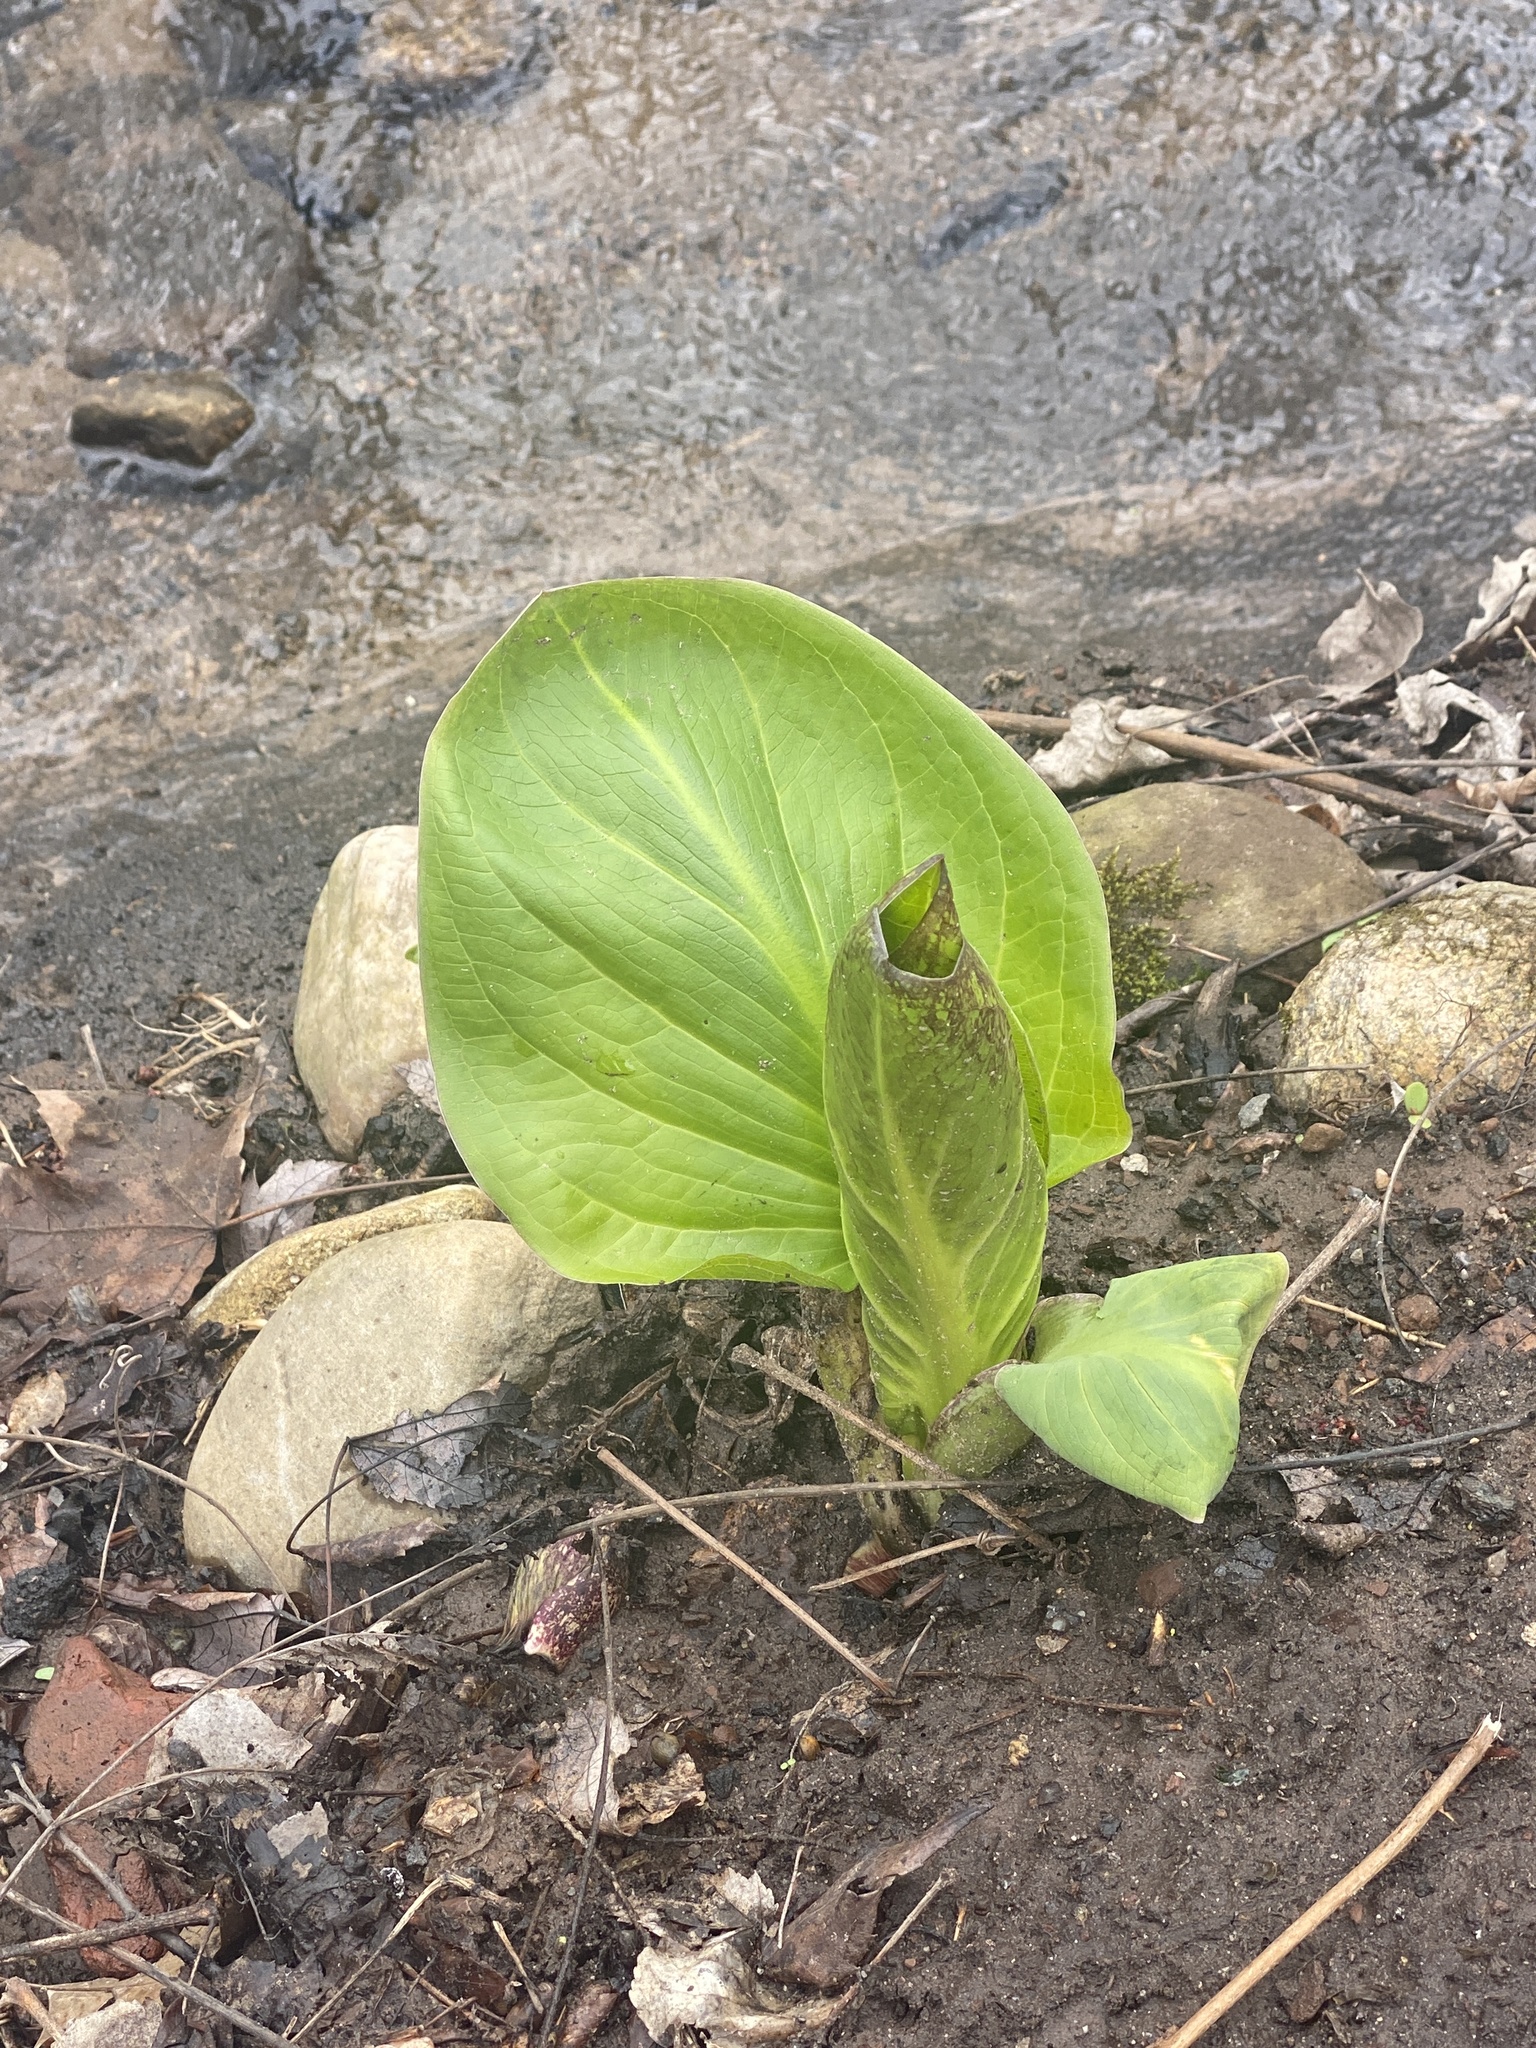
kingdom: Plantae
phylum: Tracheophyta
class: Liliopsida
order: Alismatales
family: Araceae
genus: Symplocarpus
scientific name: Symplocarpus foetidus
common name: Eastern skunk cabbage
